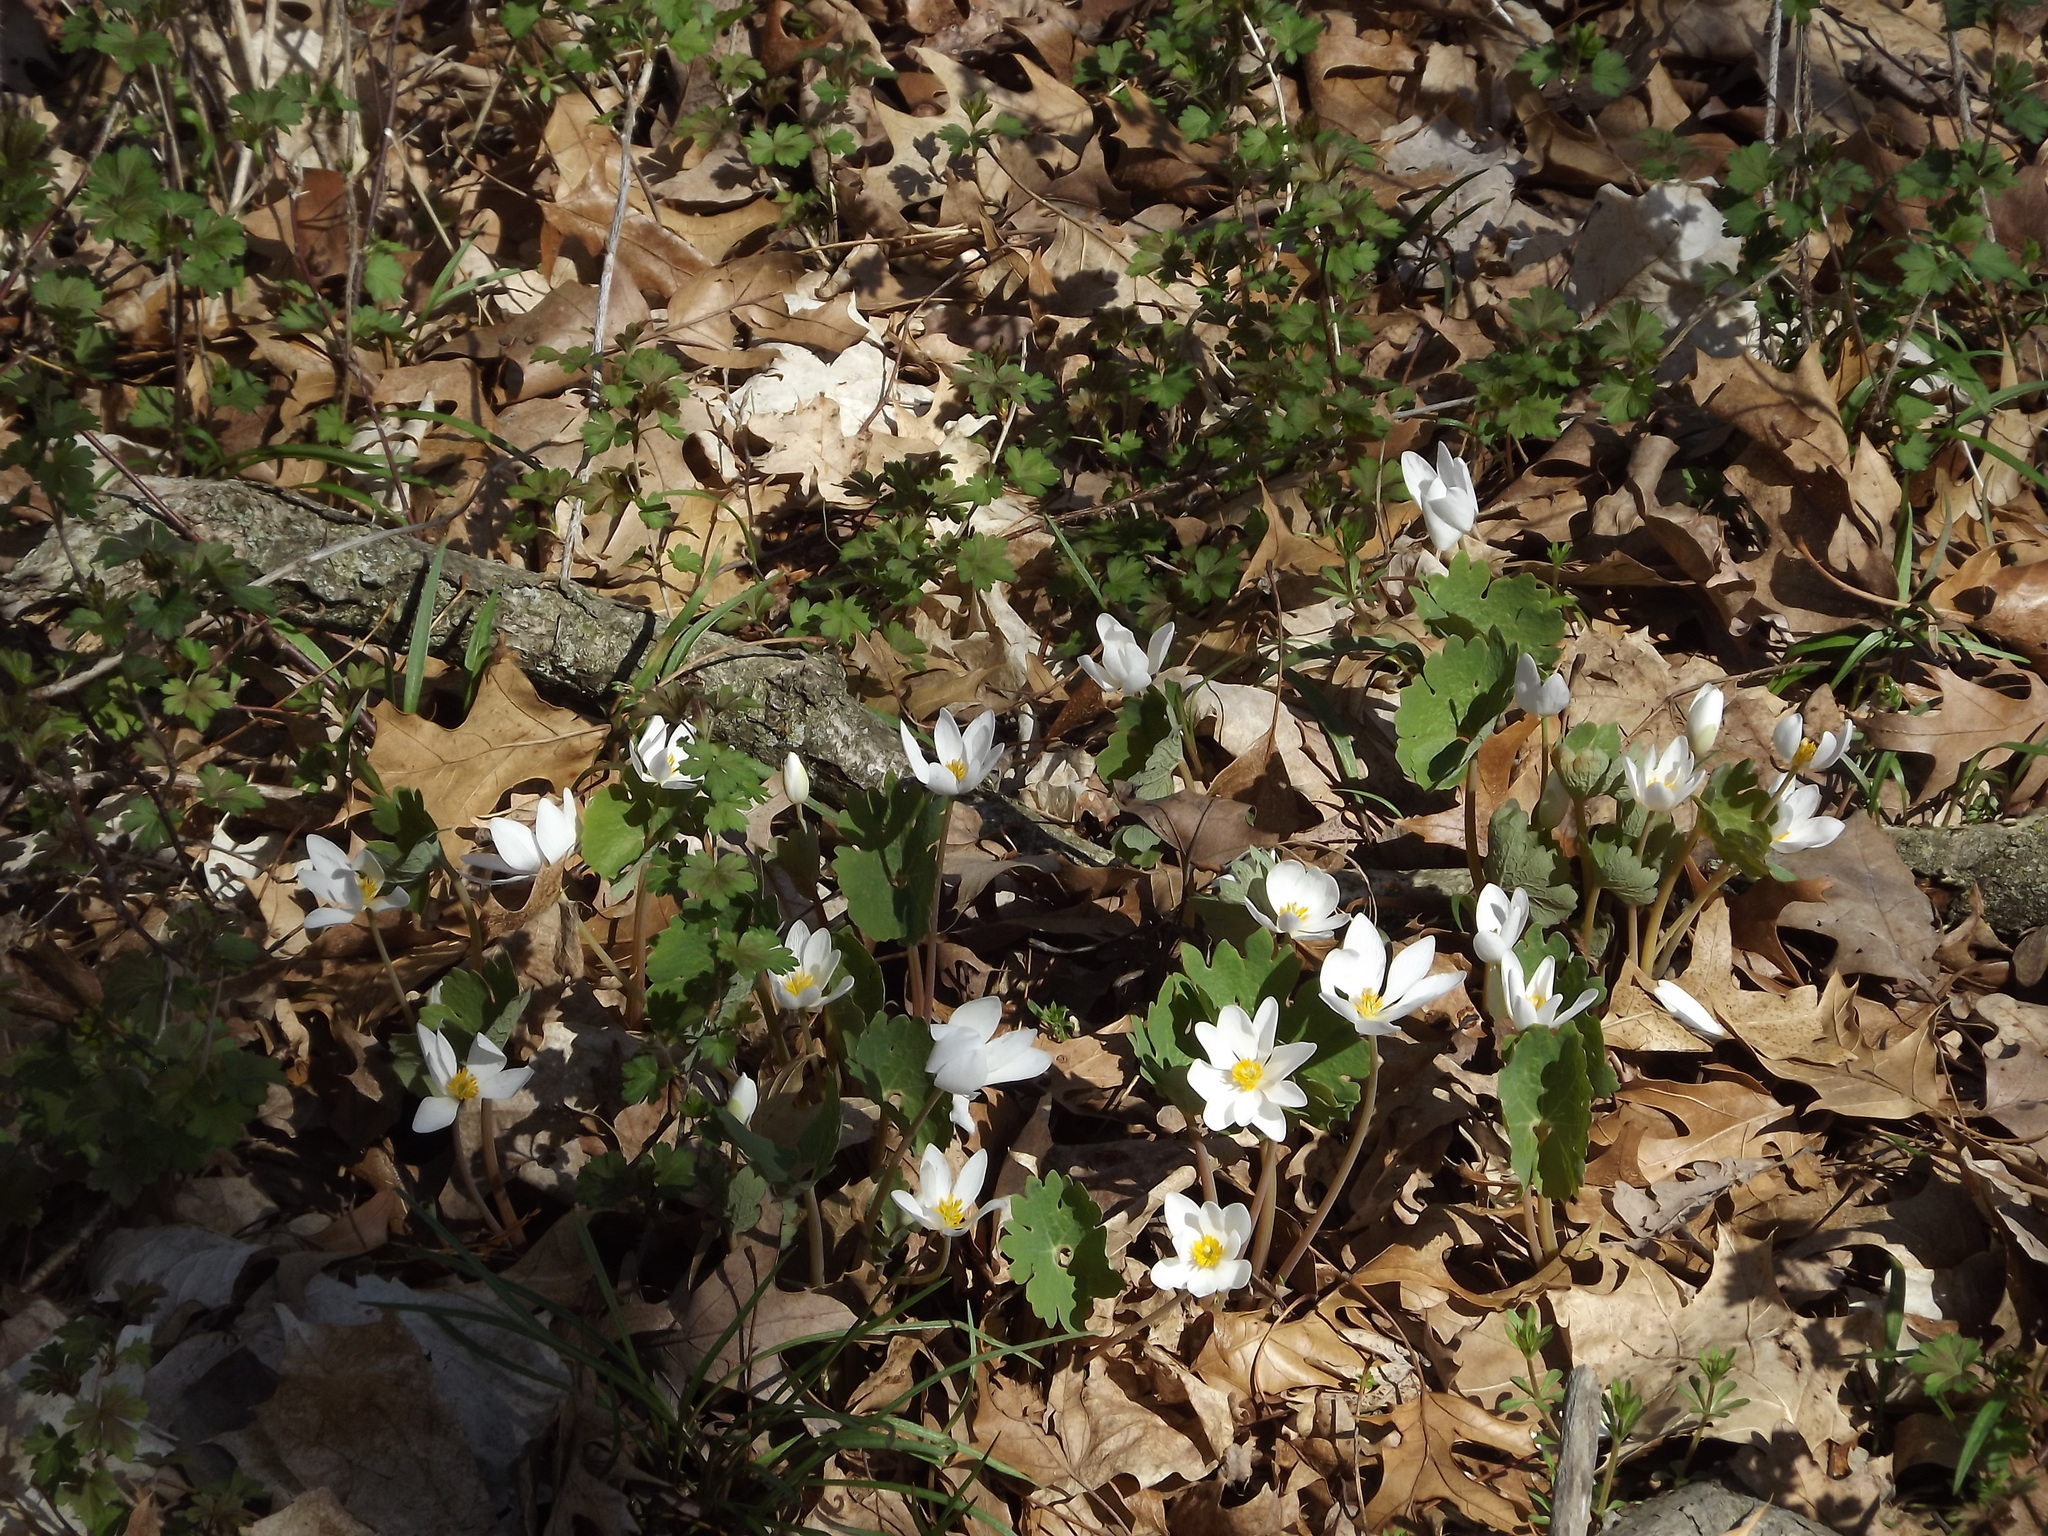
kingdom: Plantae
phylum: Tracheophyta
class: Magnoliopsida
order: Ranunculales
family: Papaveraceae
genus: Sanguinaria
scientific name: Sanguinaria canadensis
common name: Bloodroot
